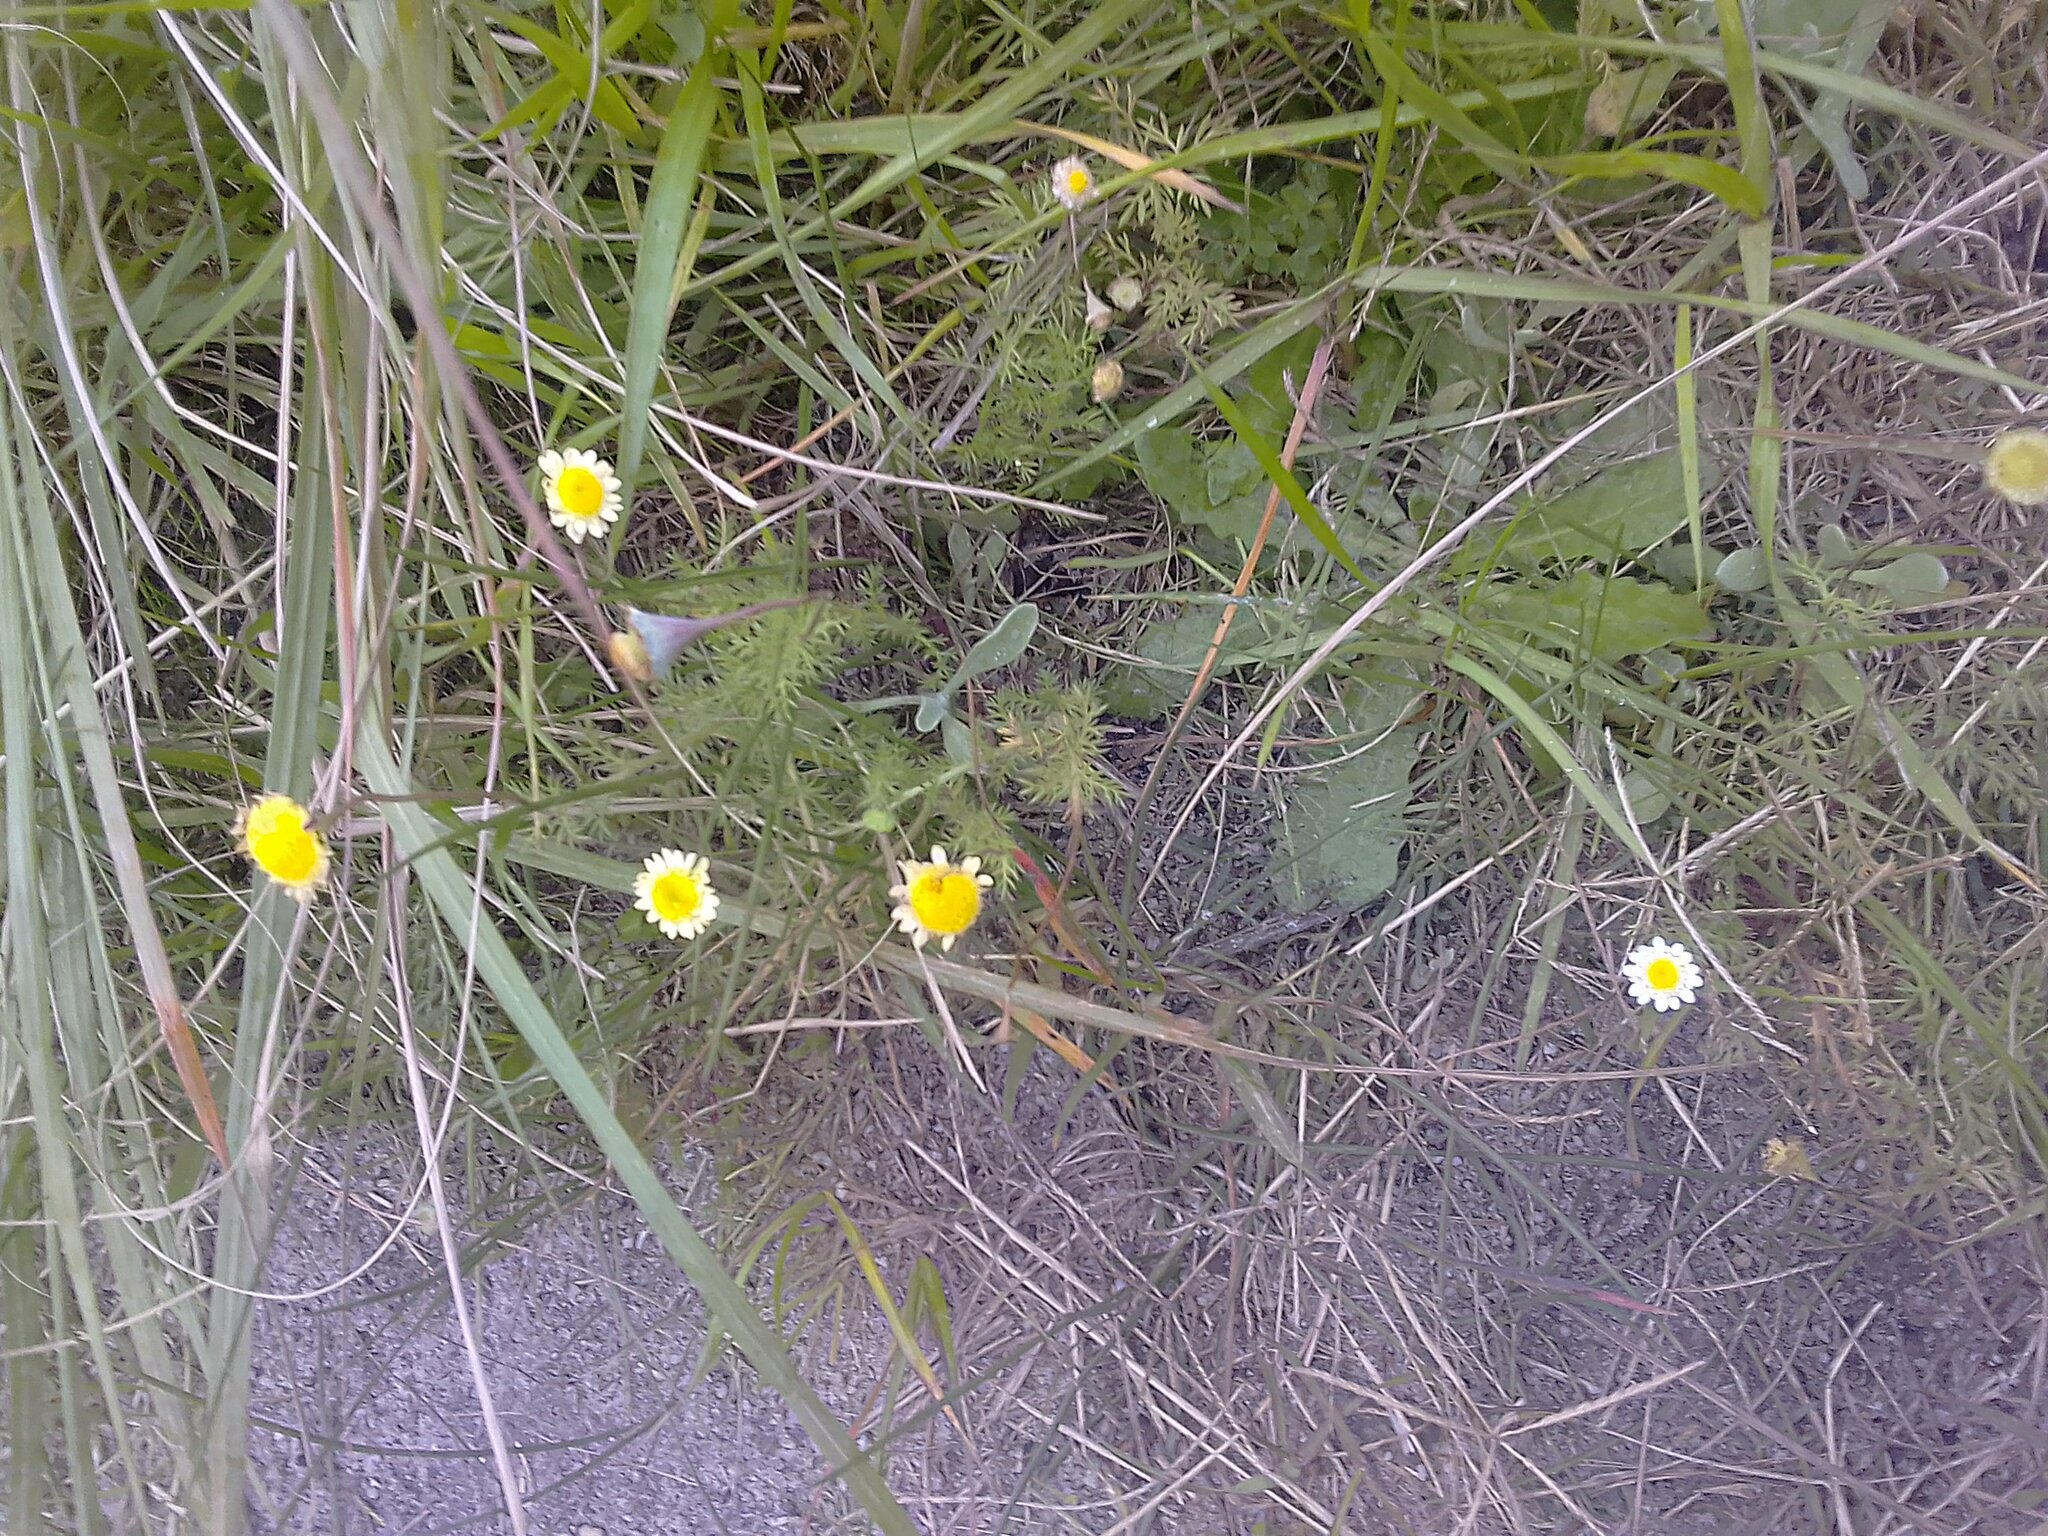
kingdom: Plantae
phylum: Tracheophyta
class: Magnoliopsida
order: Asterales
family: Asteraceae
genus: Cotula
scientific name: Cotula turbinata
